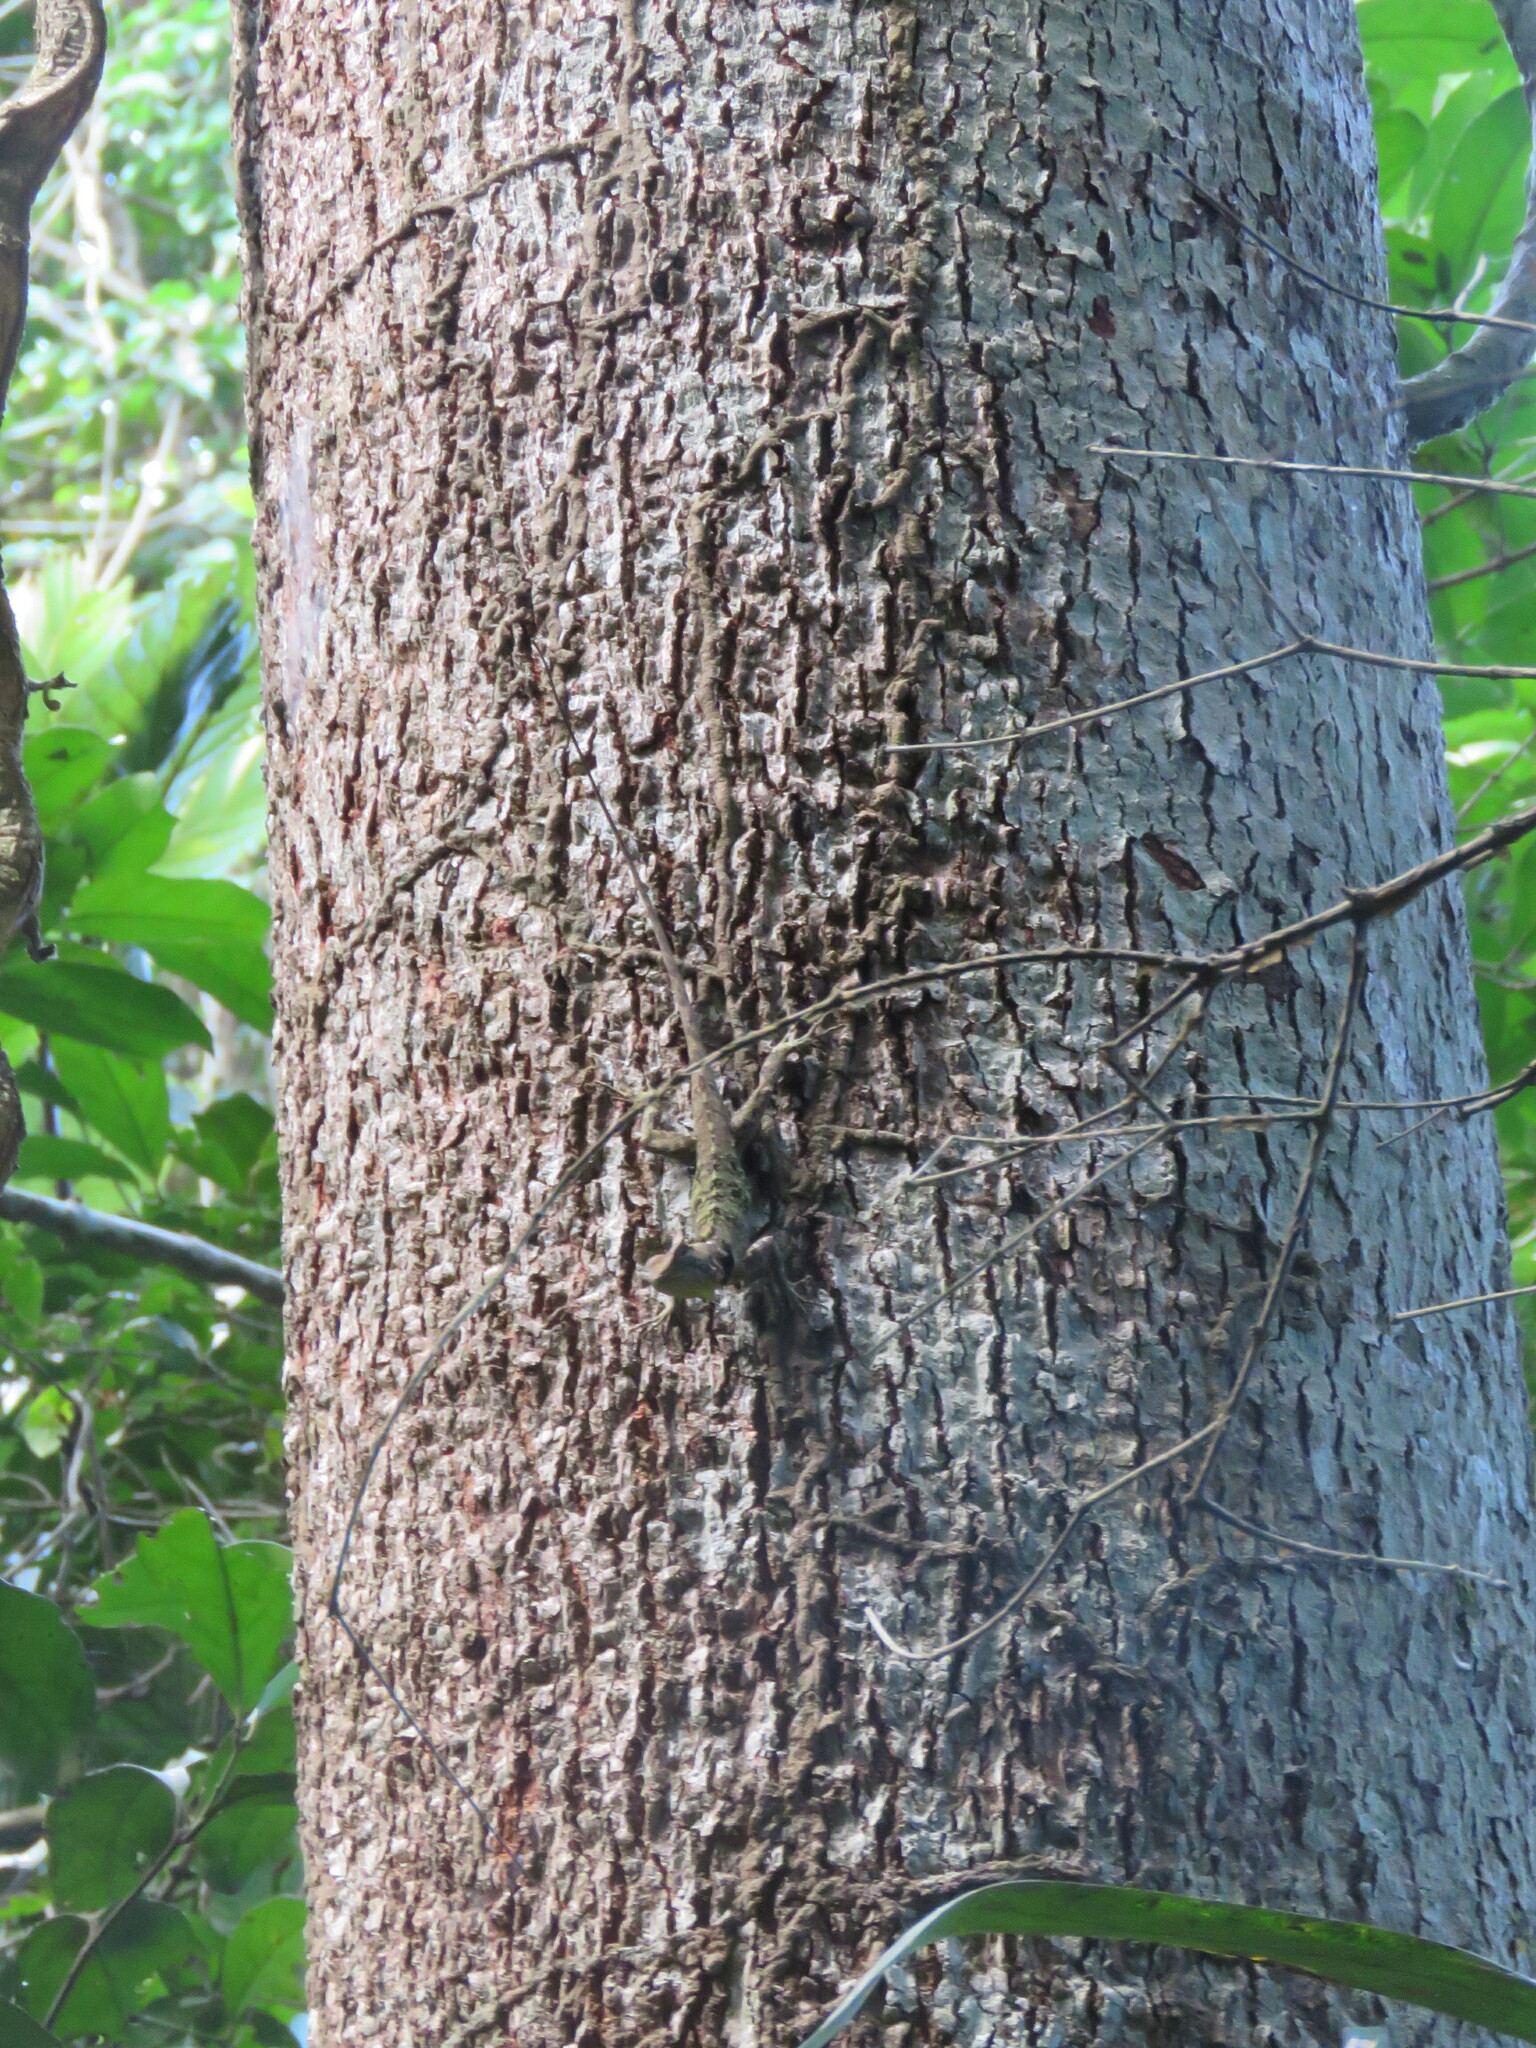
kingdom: Animalia
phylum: Chordata
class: Squamata
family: Tropiduridae
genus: Plica
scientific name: Plica umbra
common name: Harlequin racerunner
